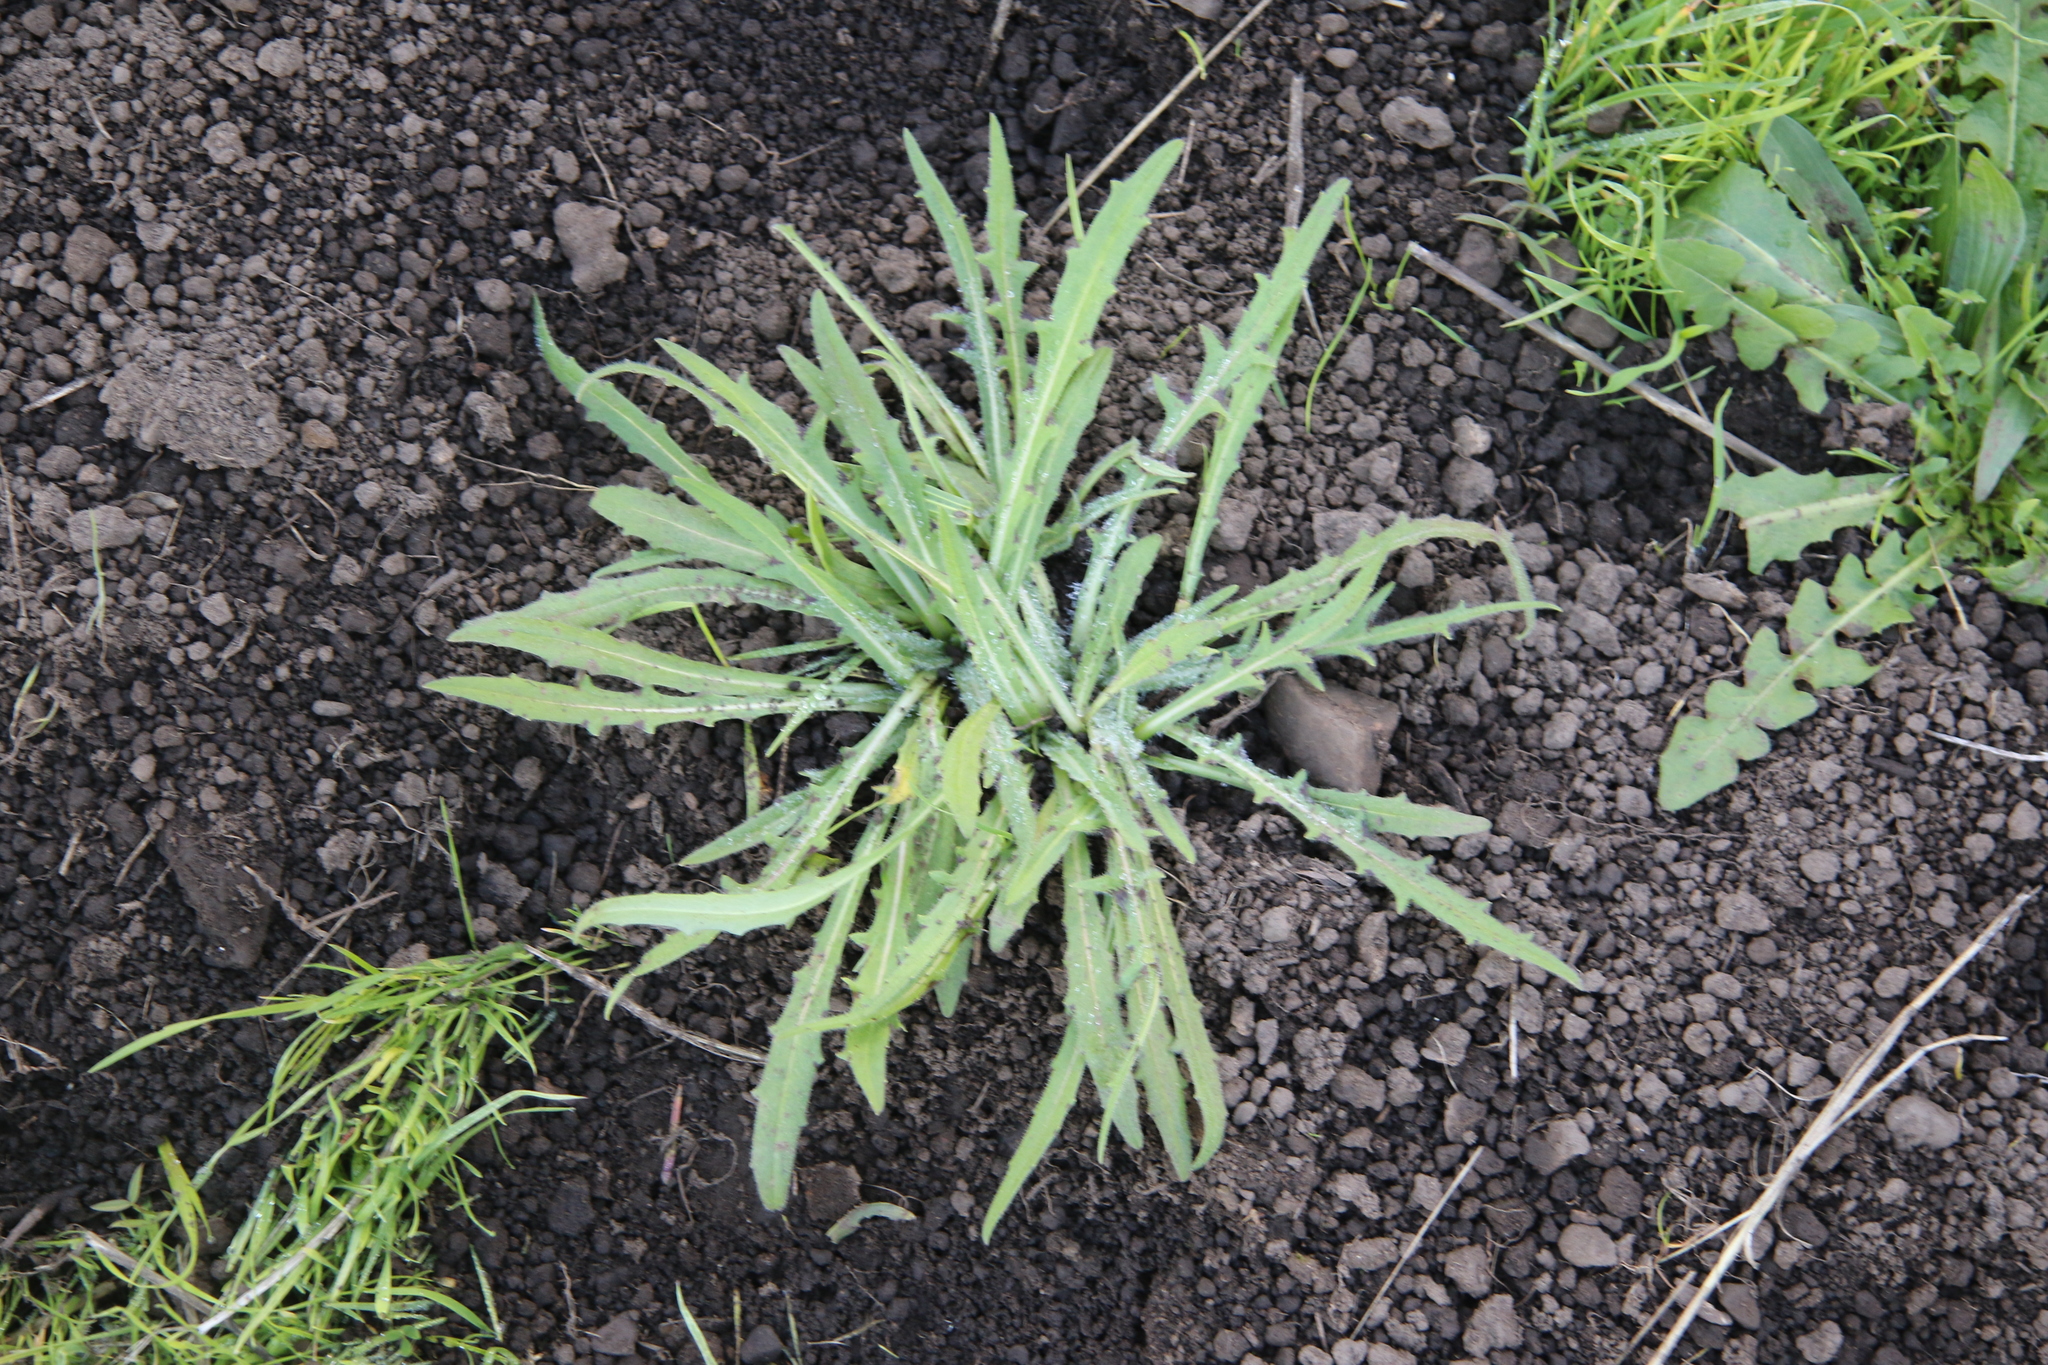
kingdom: Plantae
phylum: Tracheophyta
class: Magnoliopsida
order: Lamiales
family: Plantaginaceae
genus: Plantago
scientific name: Plantago coronopus
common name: Buck's-horn plantain
